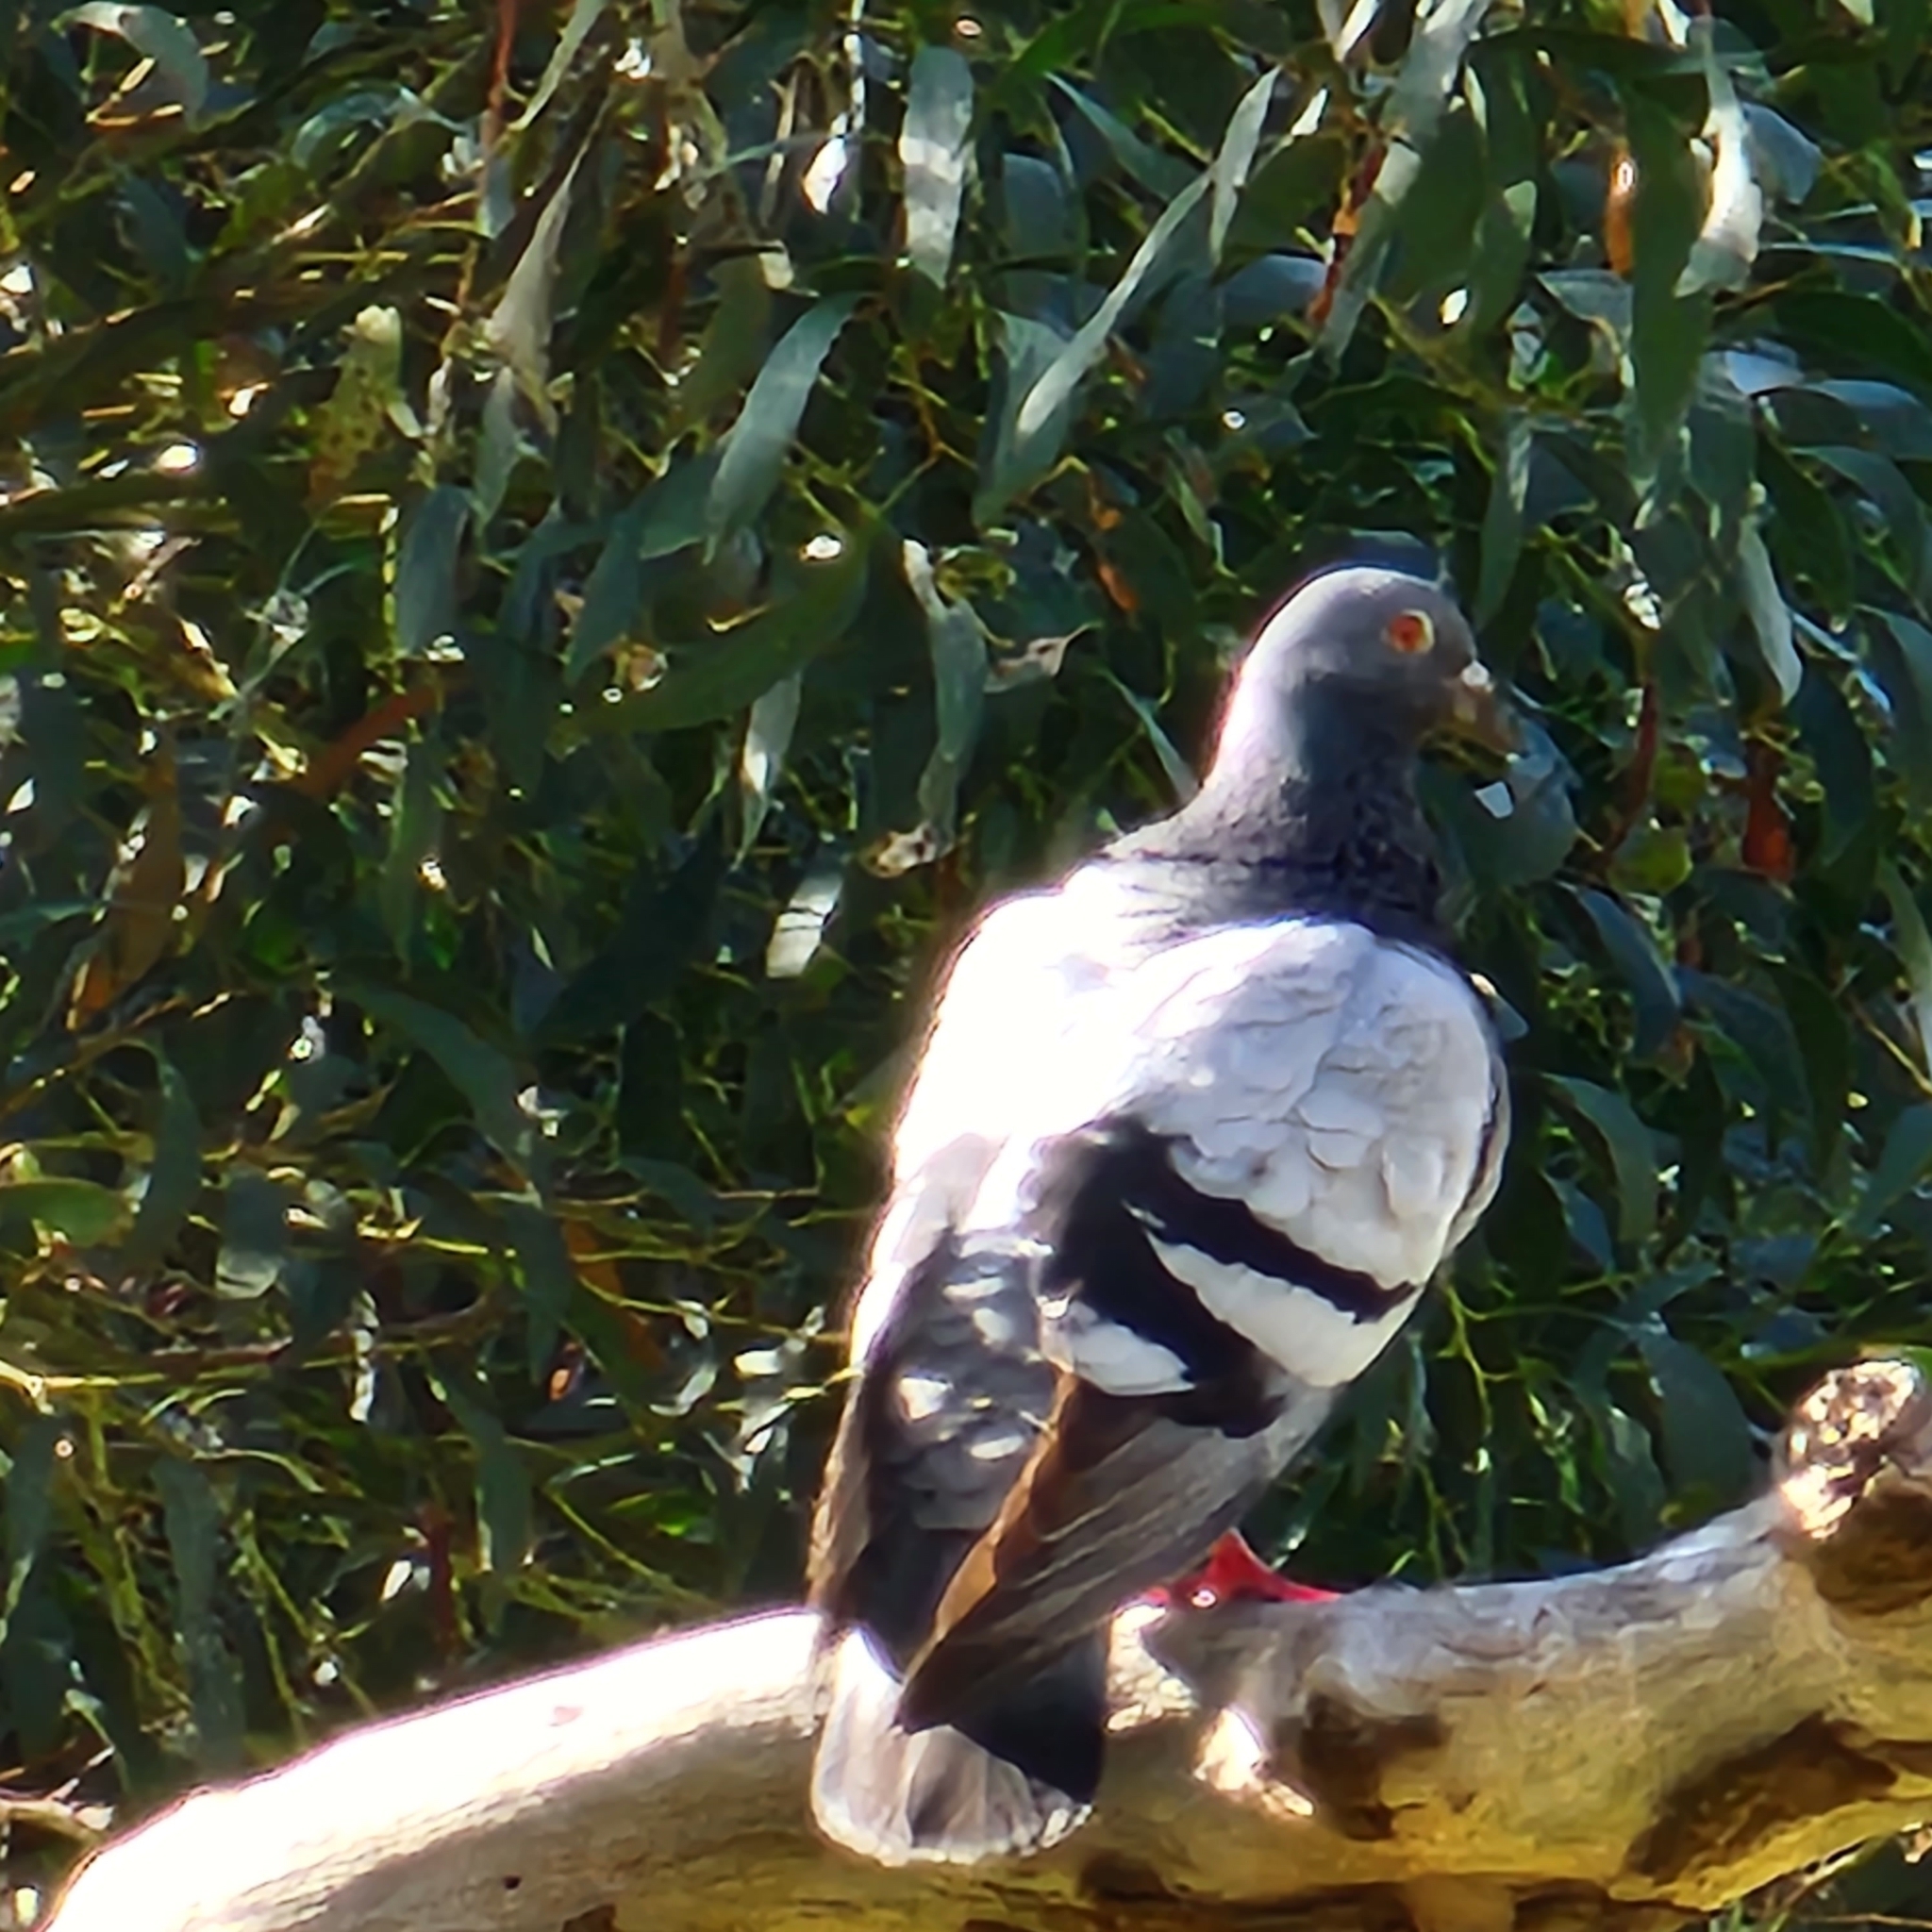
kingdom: Animalia
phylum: Chordata
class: Aves
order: Columbiformes
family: Columbidae
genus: Columba
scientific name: Columba livia
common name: Rock pigeon
